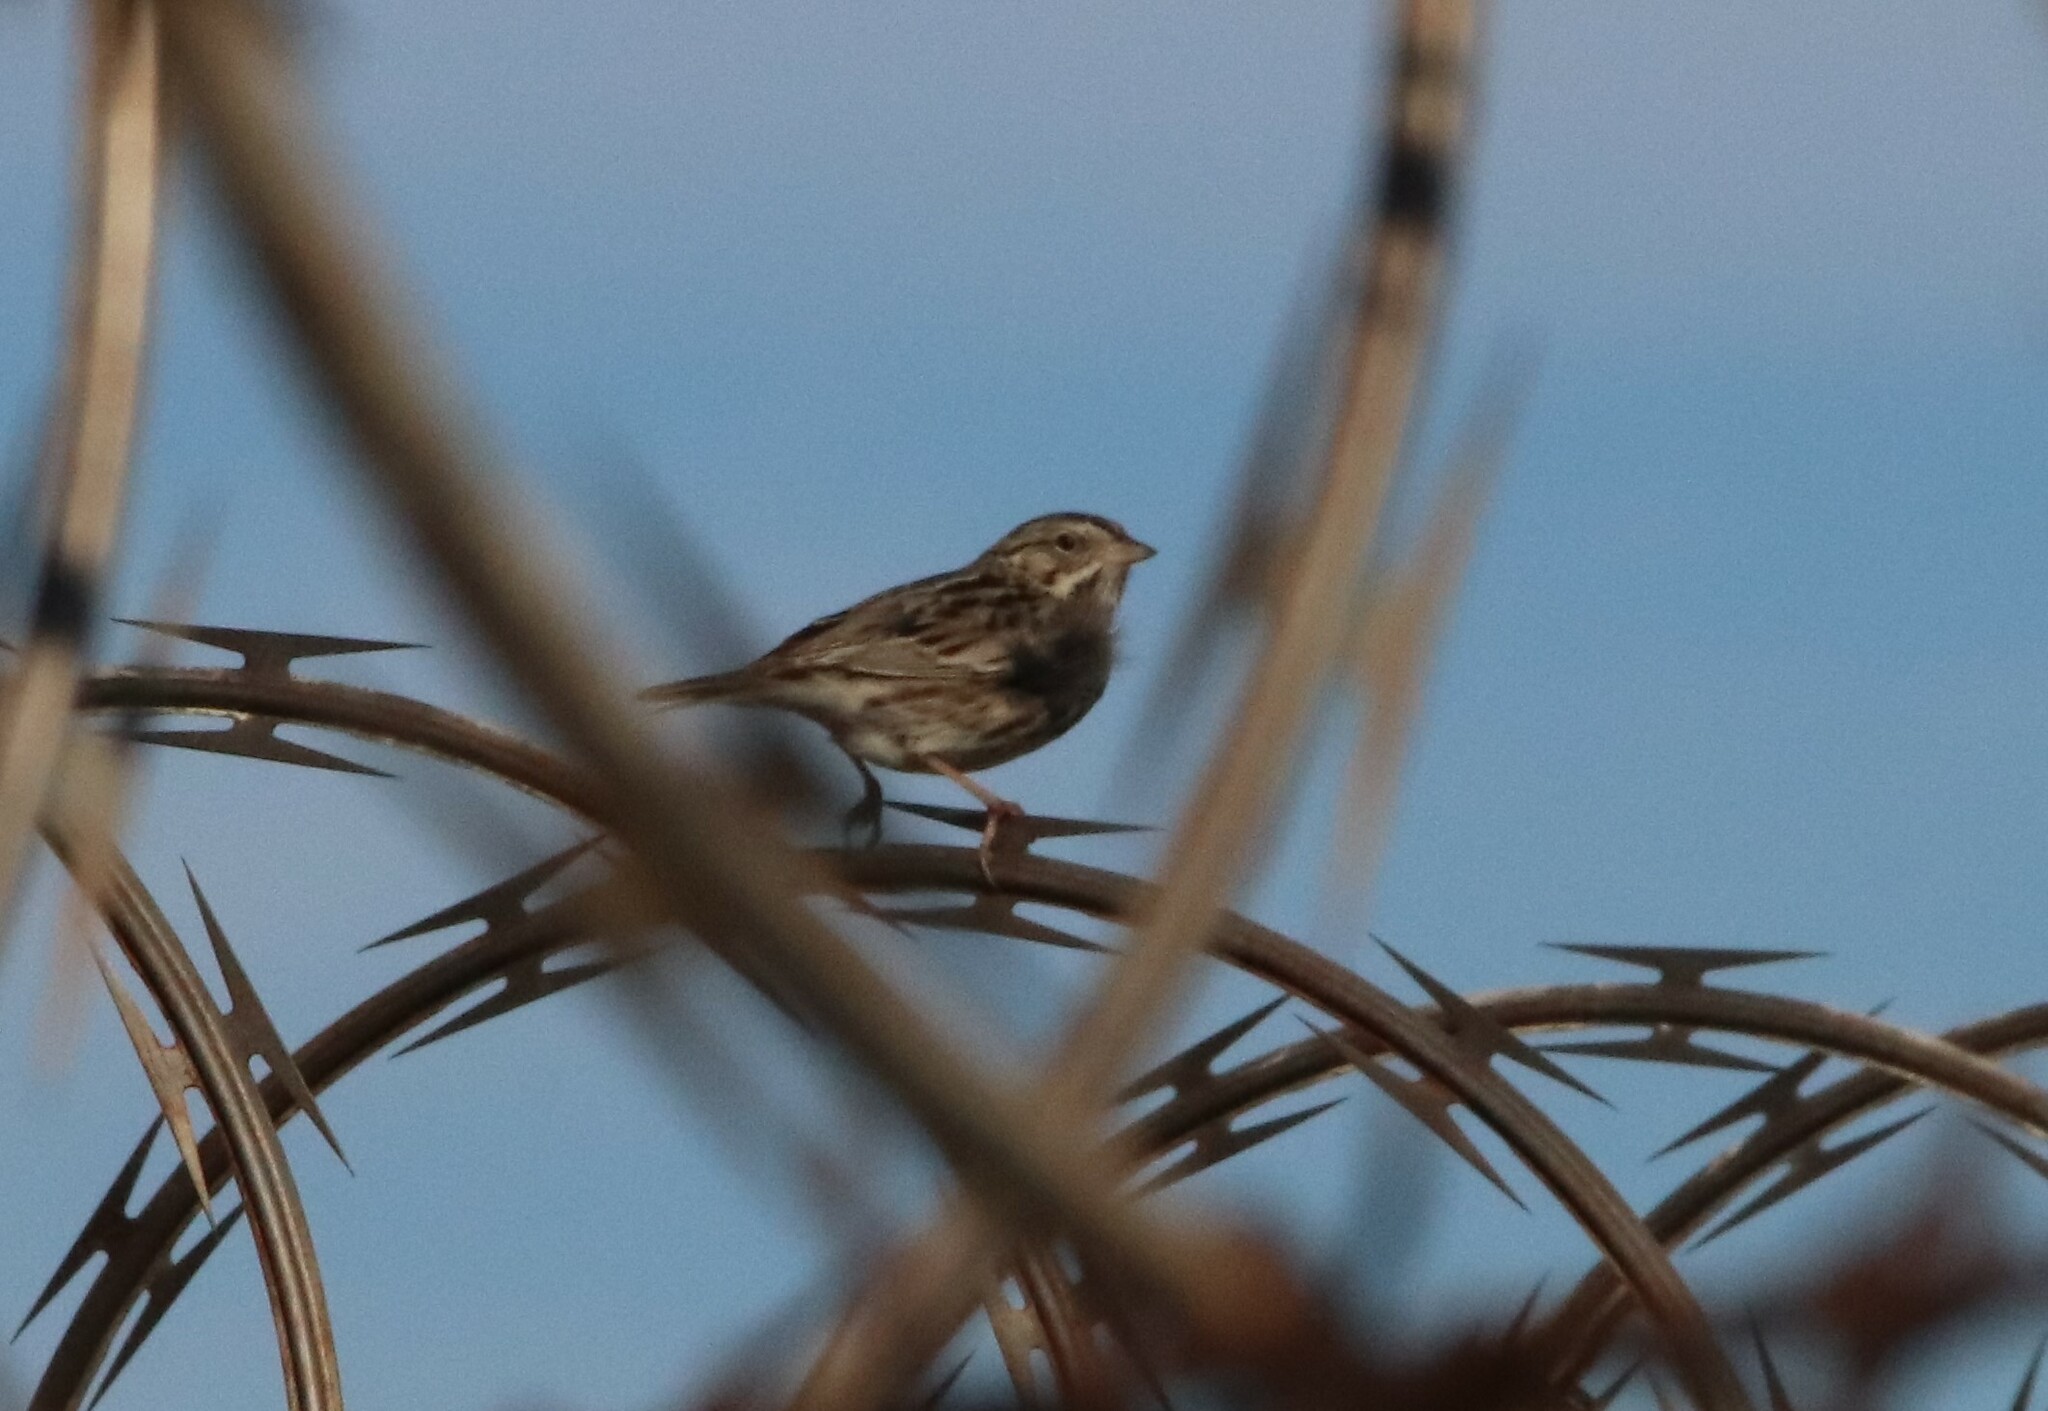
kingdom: Animalia
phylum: Chordata
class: Aves
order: Passeriformes
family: Passerellidae
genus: Passerculus
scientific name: Passerculus sandwichensis
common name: Savannah sparrow
